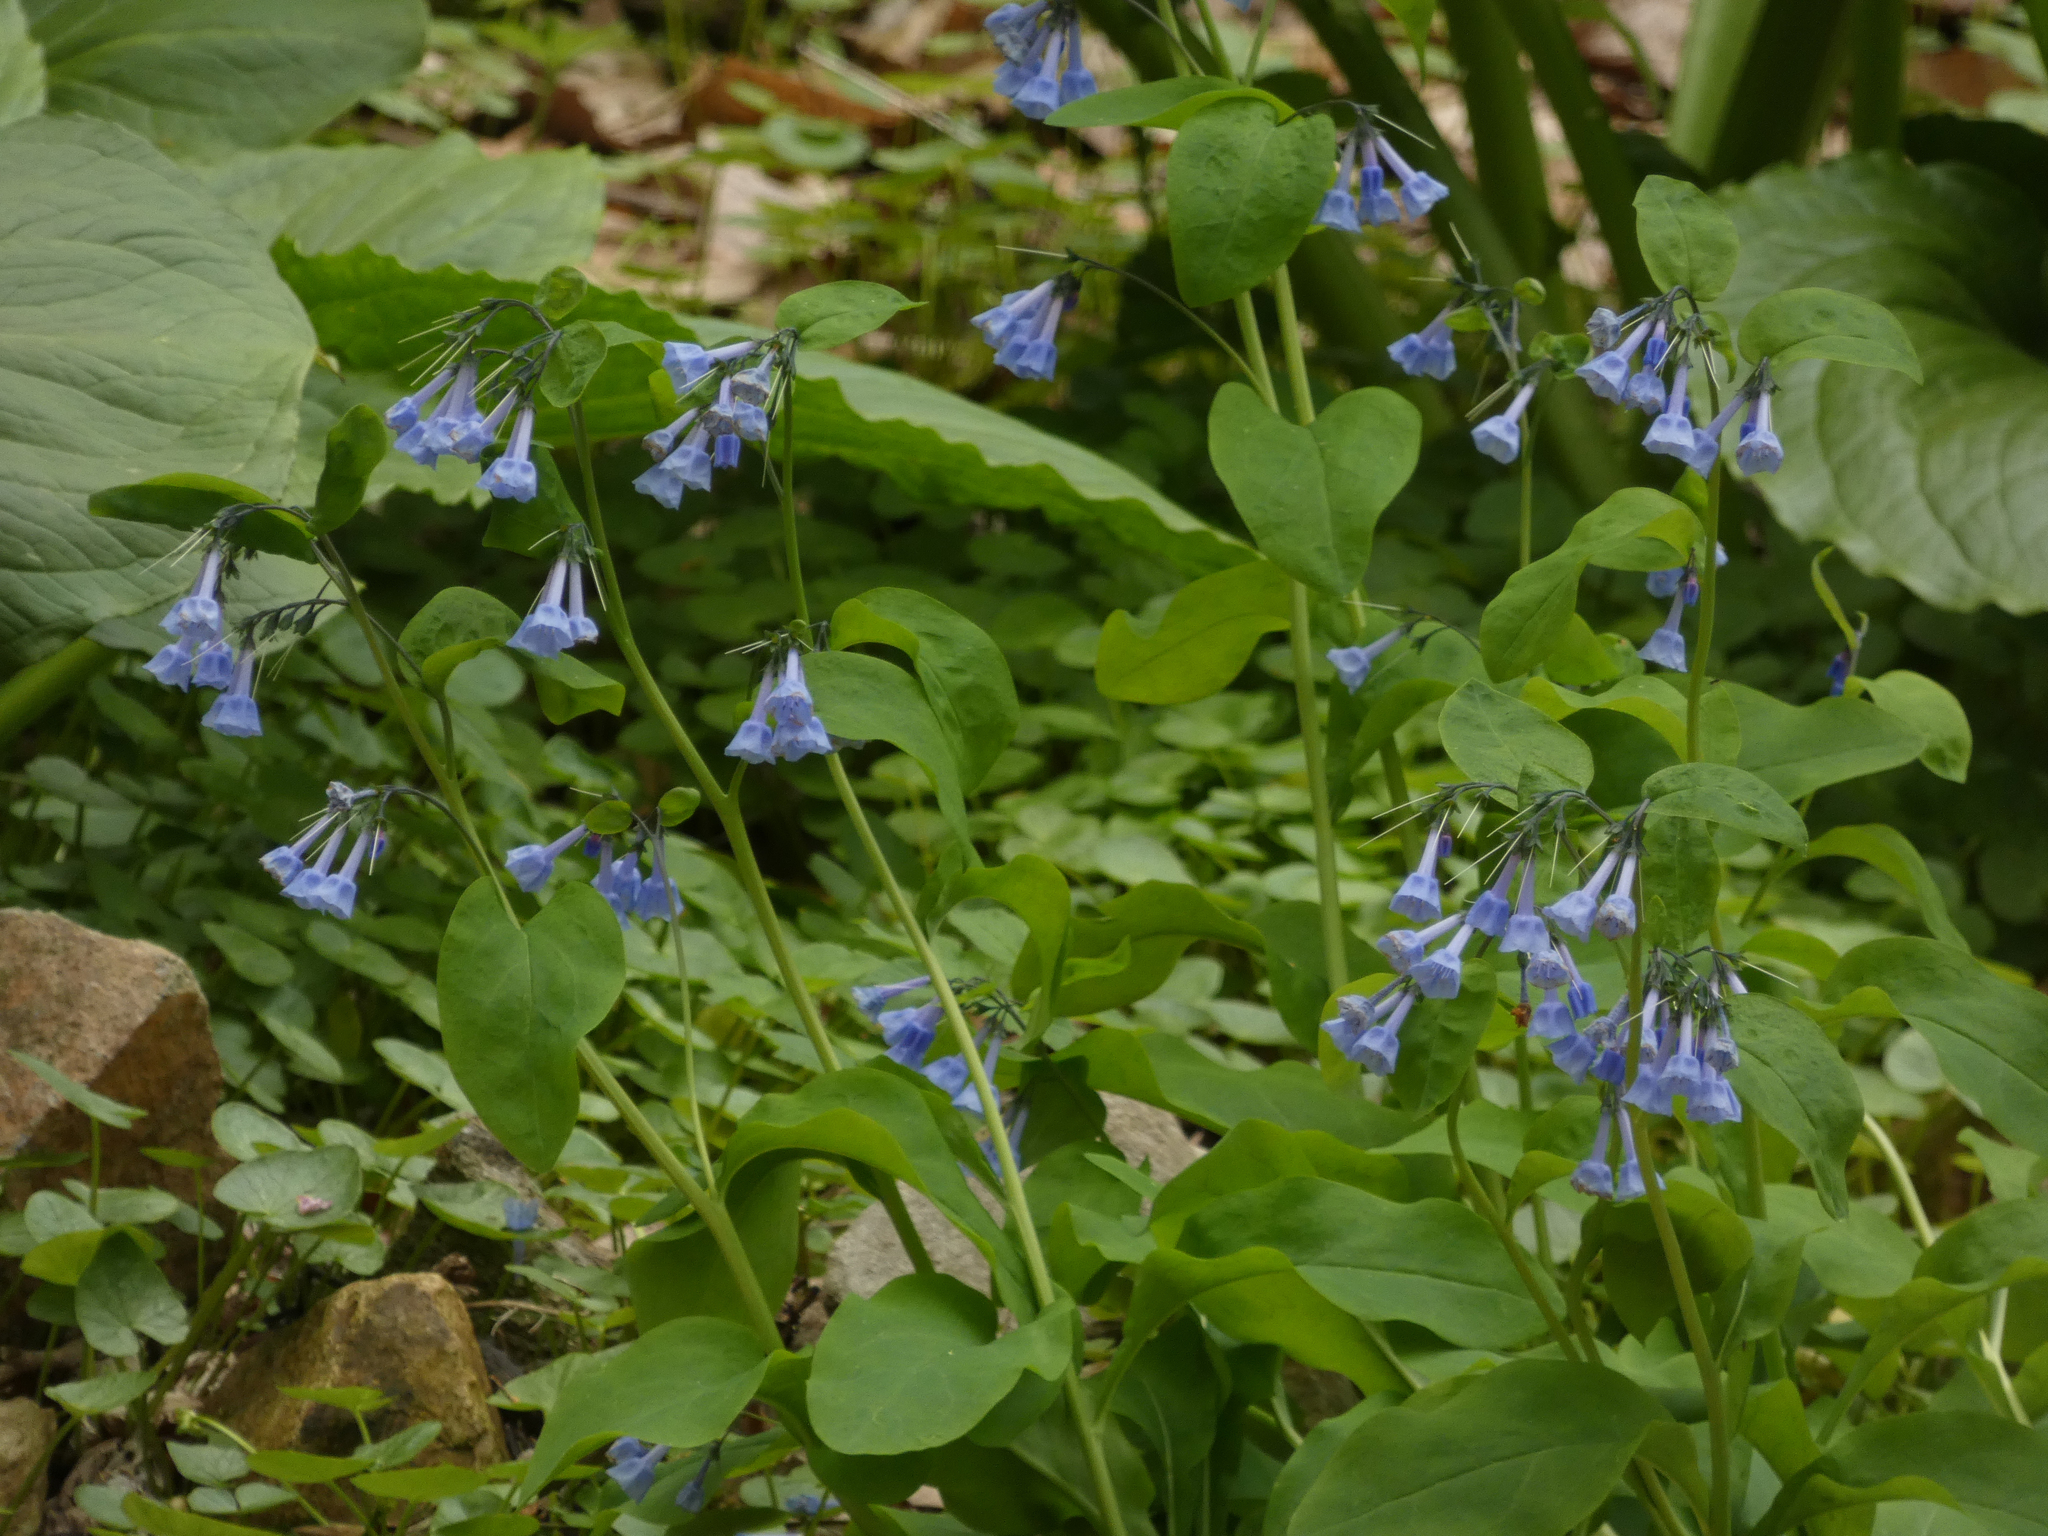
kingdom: Plantae
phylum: Tracheophyta
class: Magnoliopsida
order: Boraginales
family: Boraginaceae
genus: Mertensia
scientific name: Mertensia virginica
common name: Virginia bluebells
